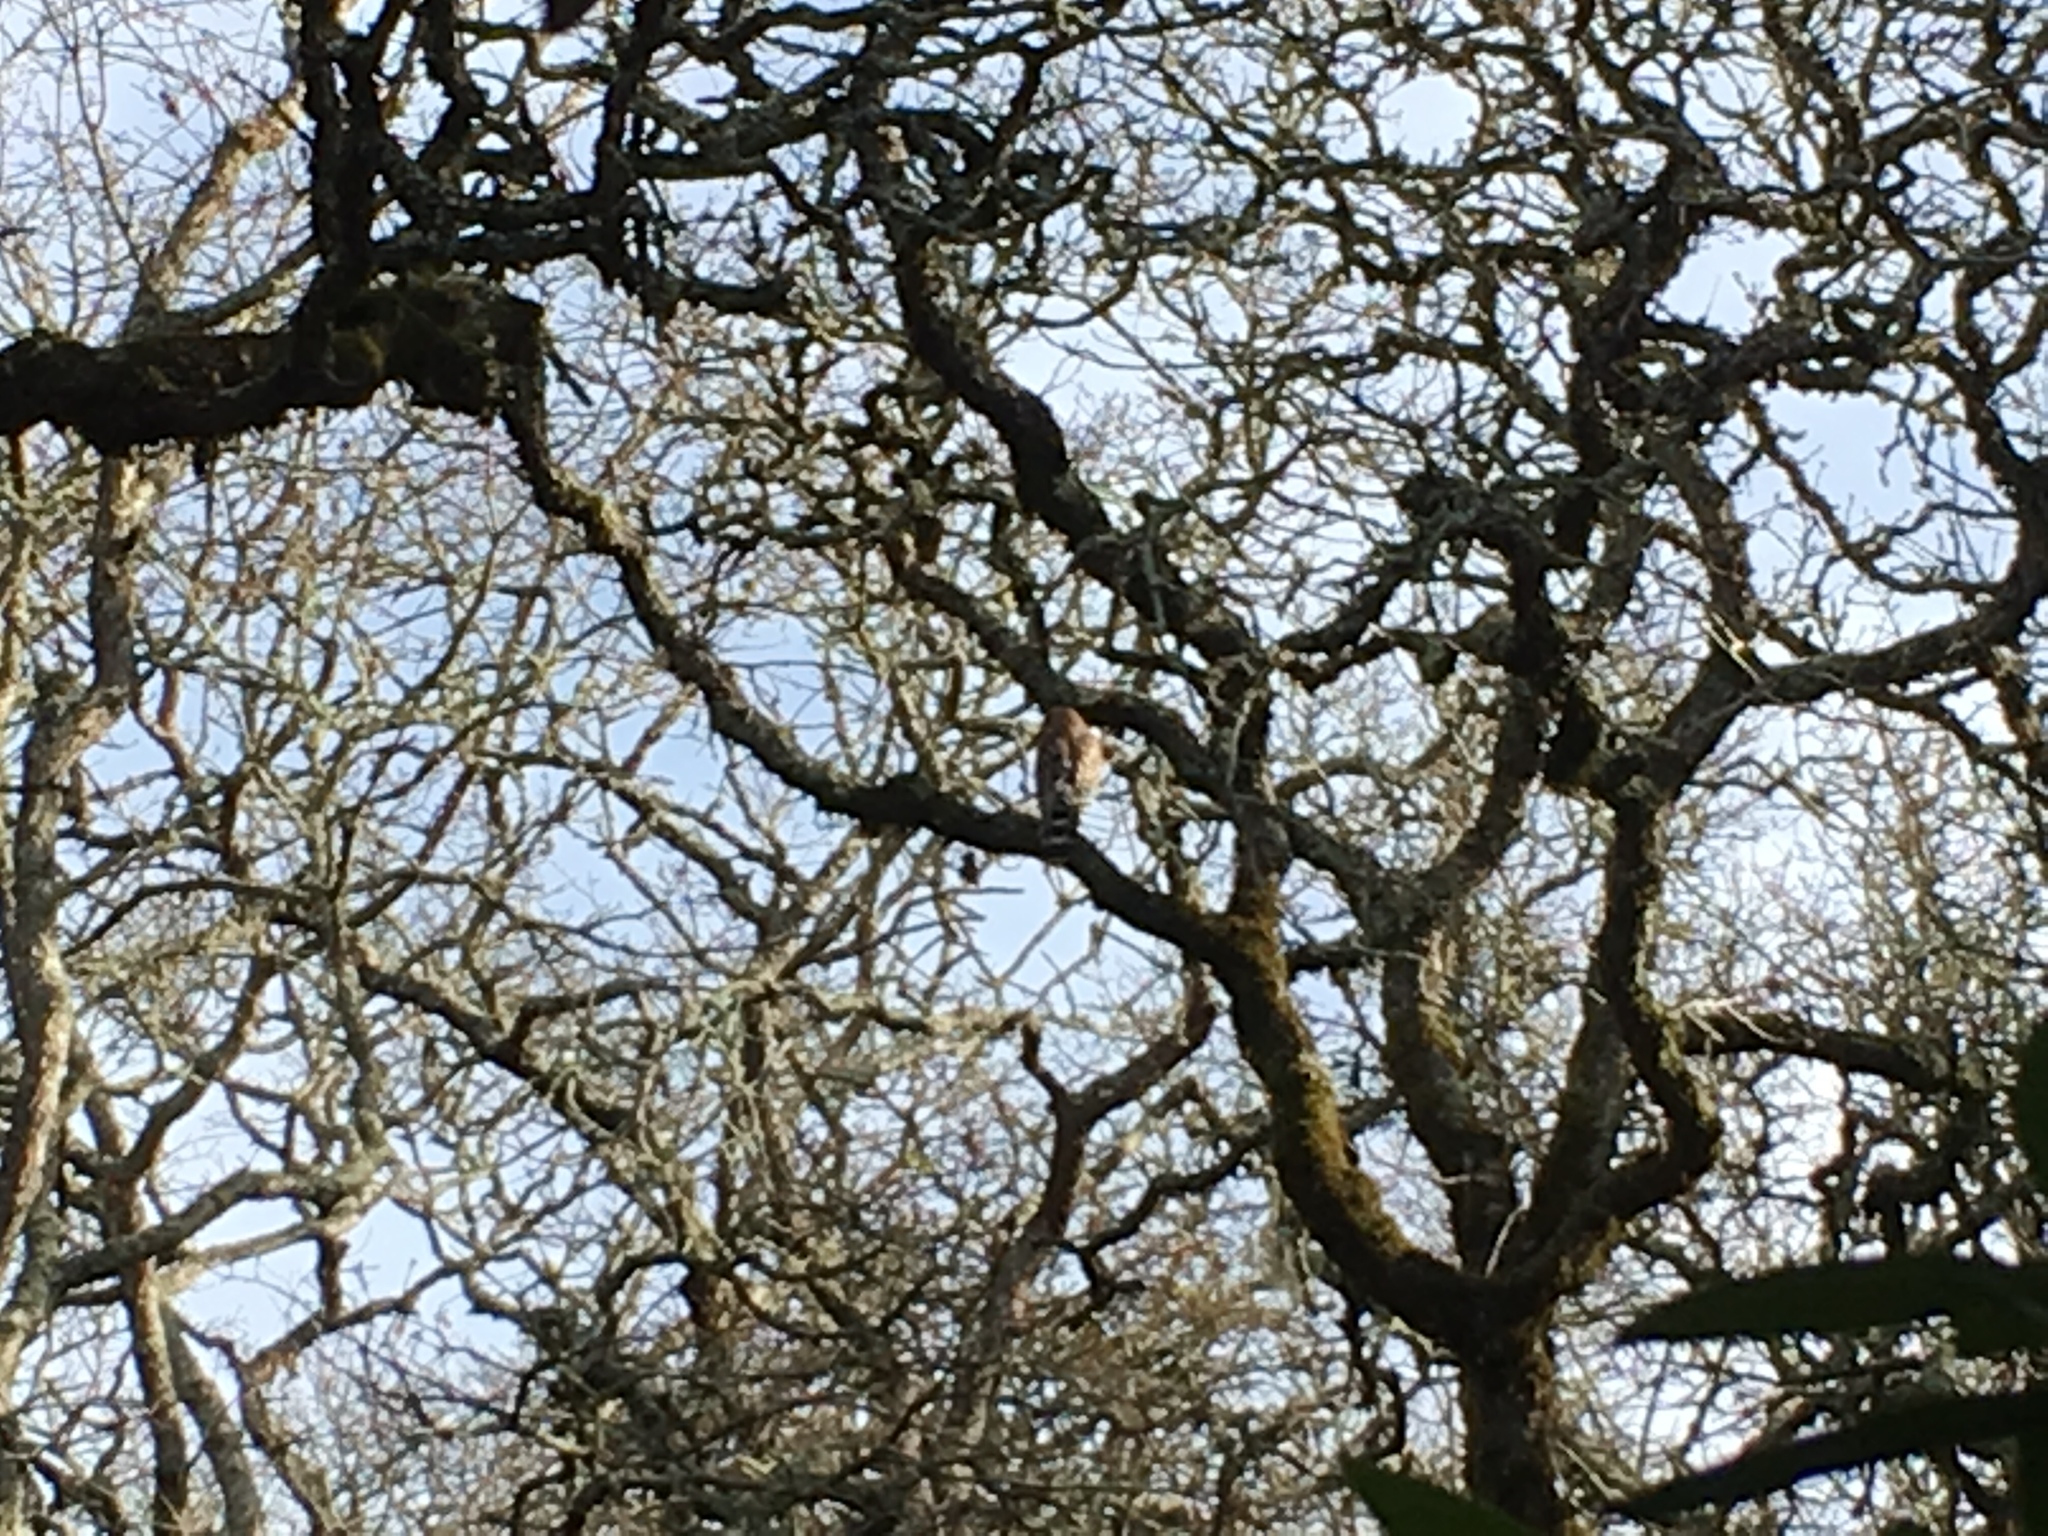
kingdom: Animalia
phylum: Chordata
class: Aves
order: Accipitriformes
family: Accipitridae
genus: Buteo
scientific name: Buteo lineatus
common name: Red-shouldered hawk
